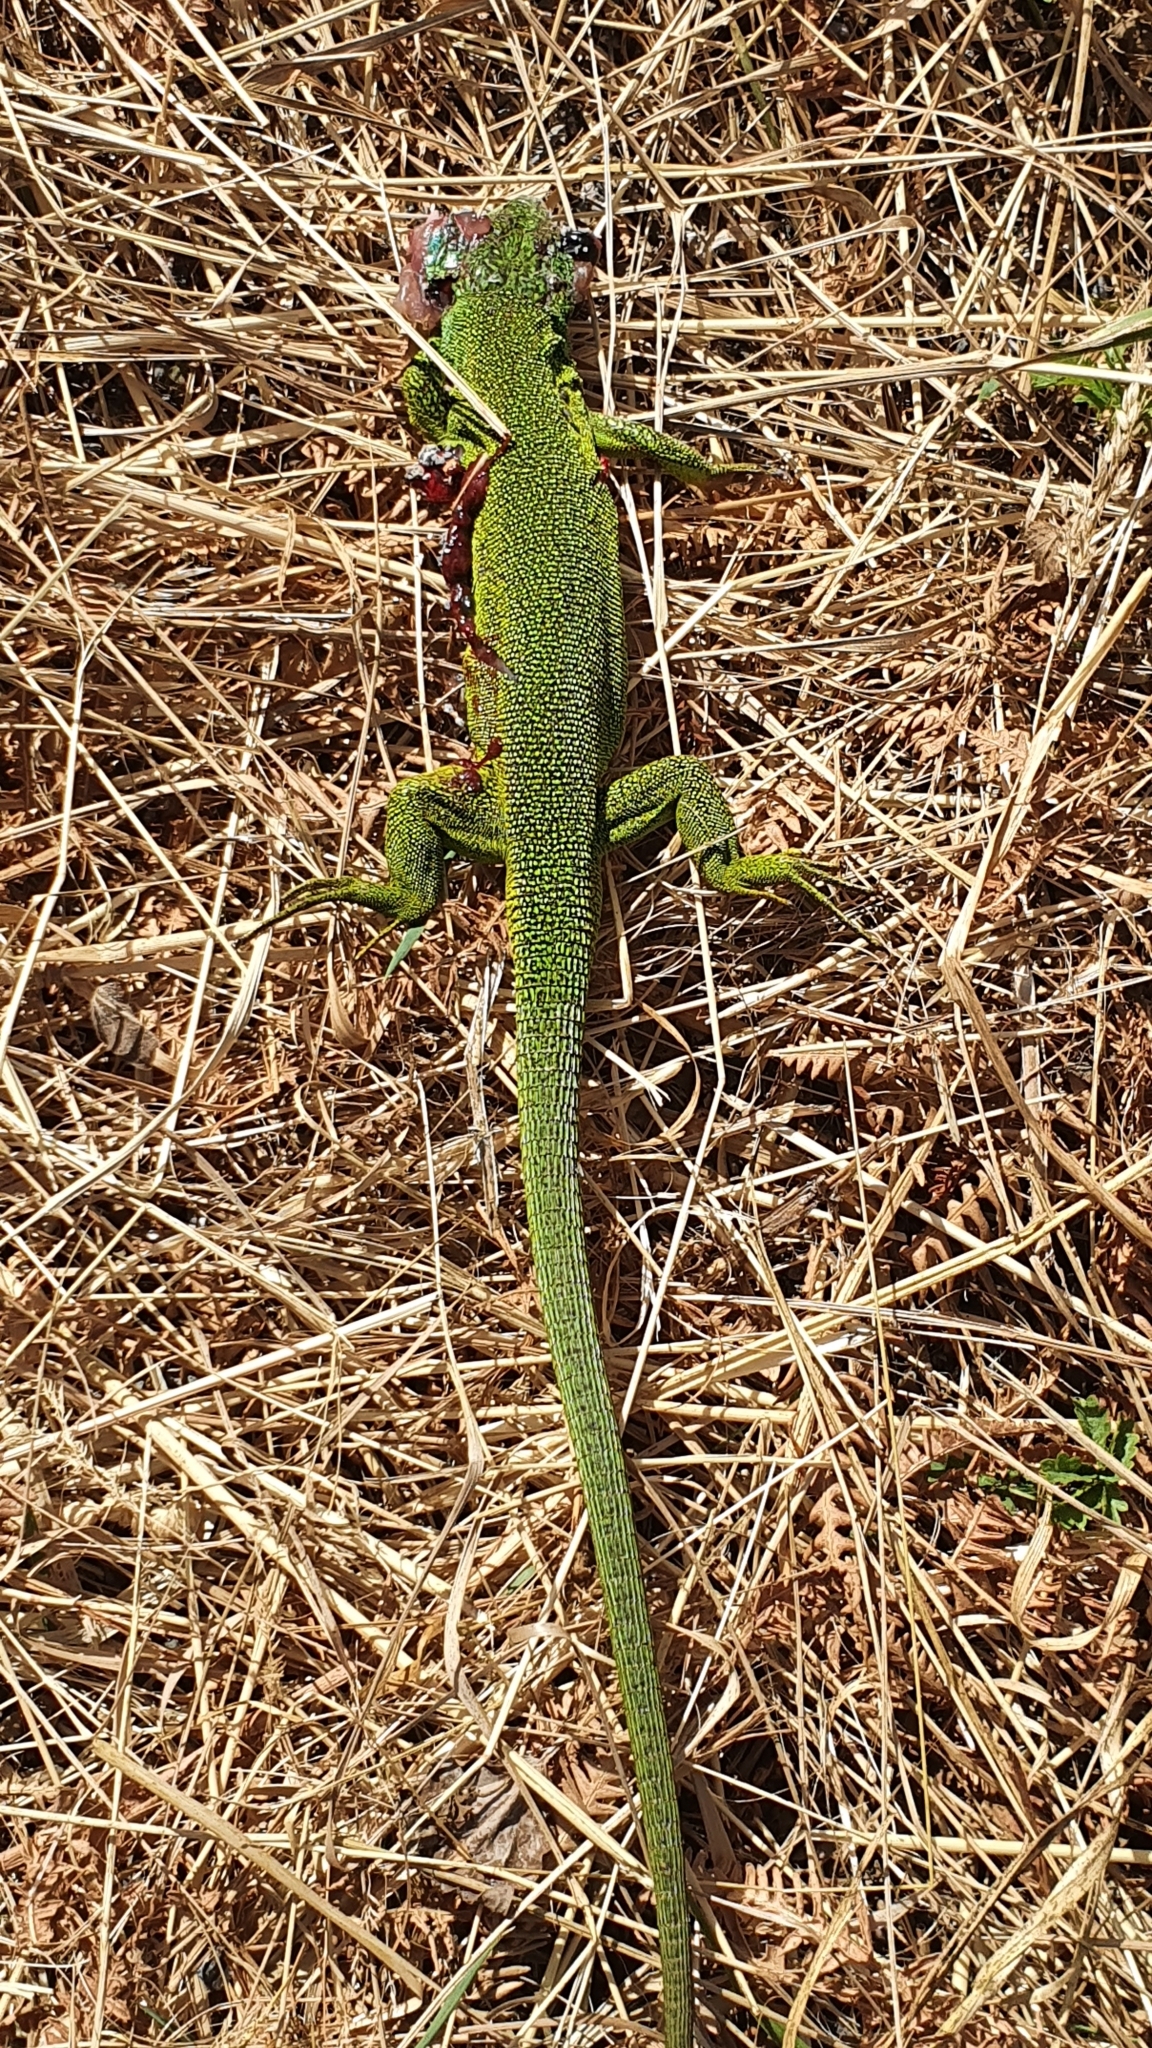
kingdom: Animalia
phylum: Chordata
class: Squamata
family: Lacertidae
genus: Lacerta
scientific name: Lacerta bilineata
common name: Western green lizard
